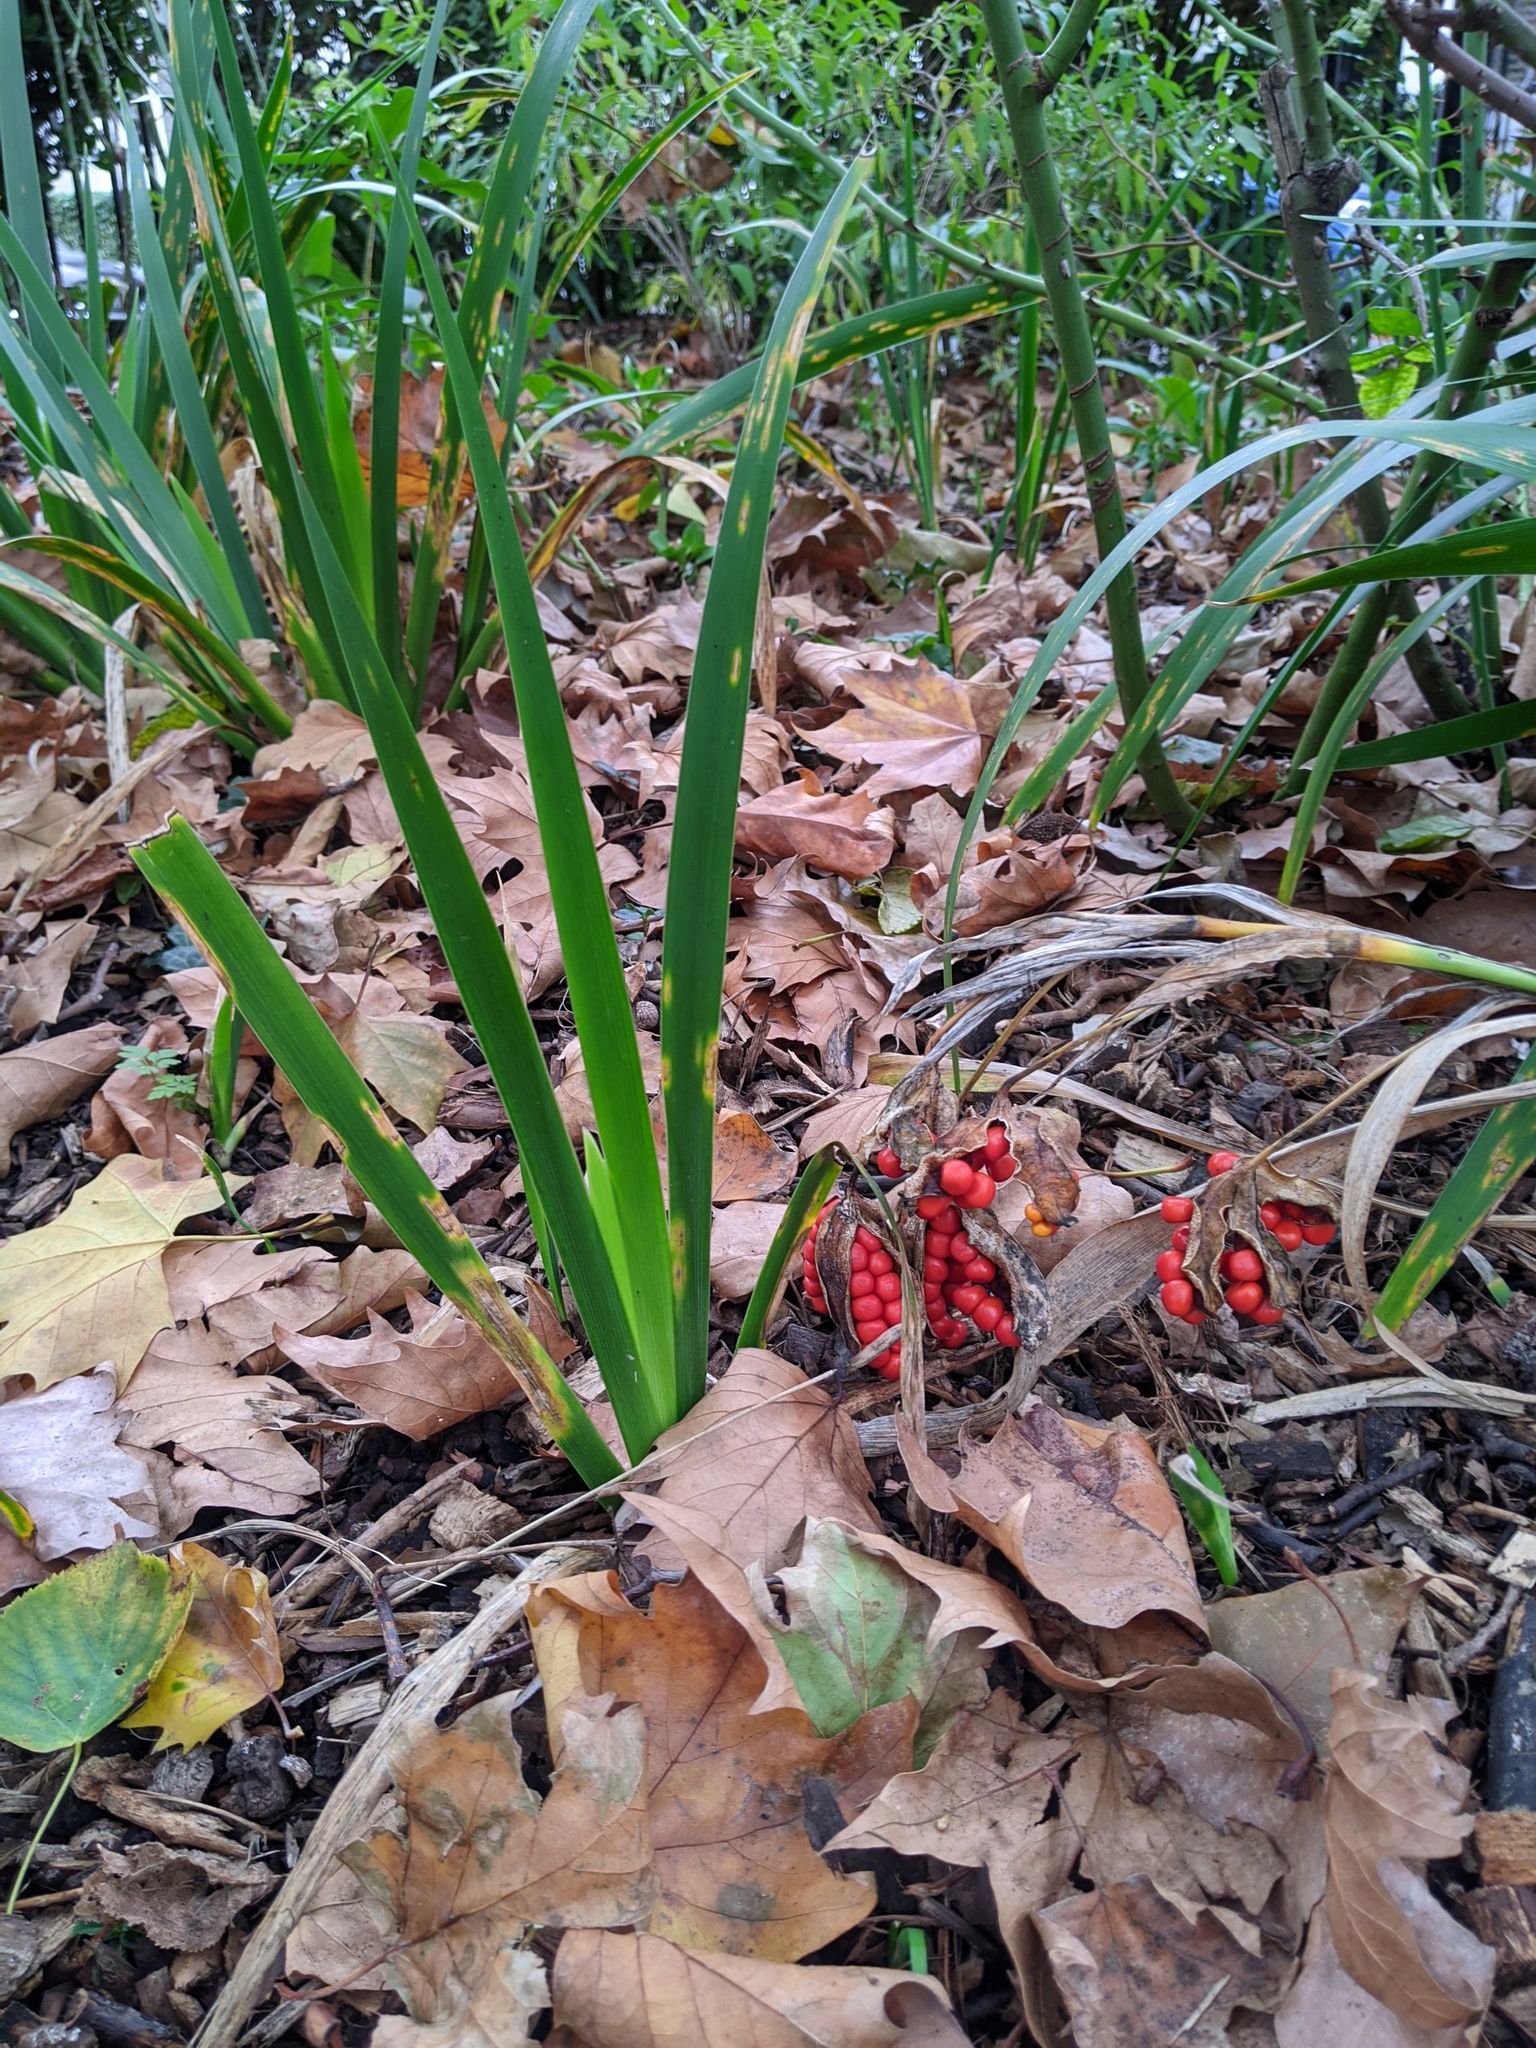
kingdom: Plantae
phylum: Tracheophyta
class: Liliopsida
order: Asparagales
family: Iridaceae
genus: Iris
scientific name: Iris foetidissima
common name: Stinking iris
